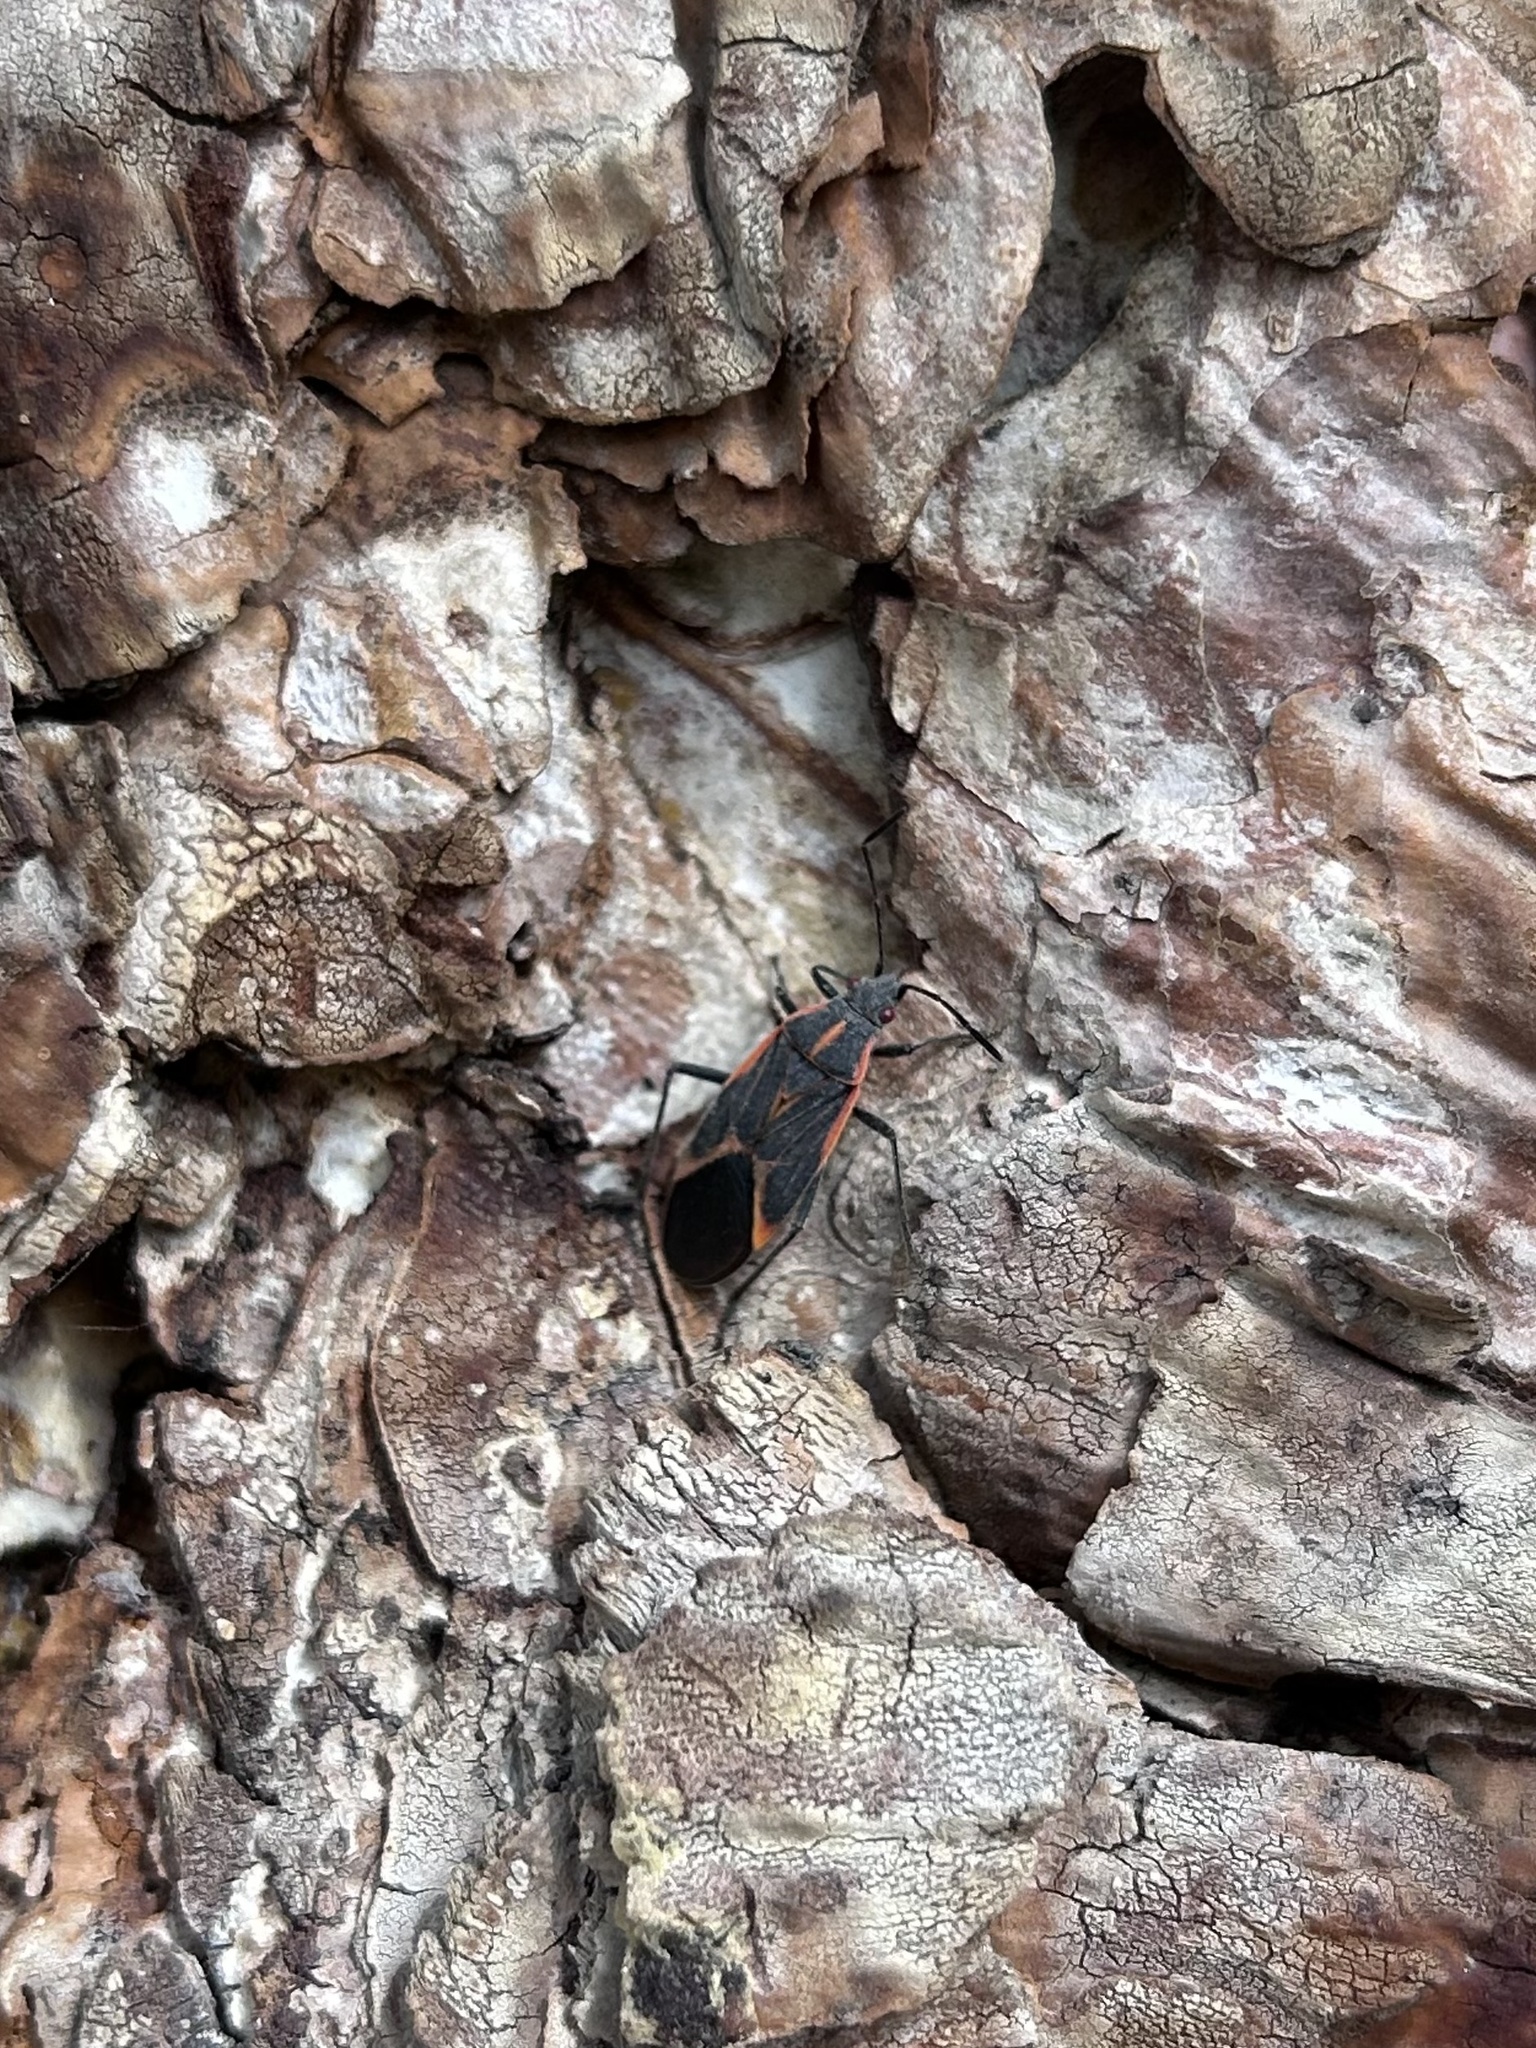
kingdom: Animalia
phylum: Arthropoda
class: Insecta
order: Hemiptera
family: Rhopalidae
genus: Boisea
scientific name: Boisea trivittata
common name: Boxelder bug
